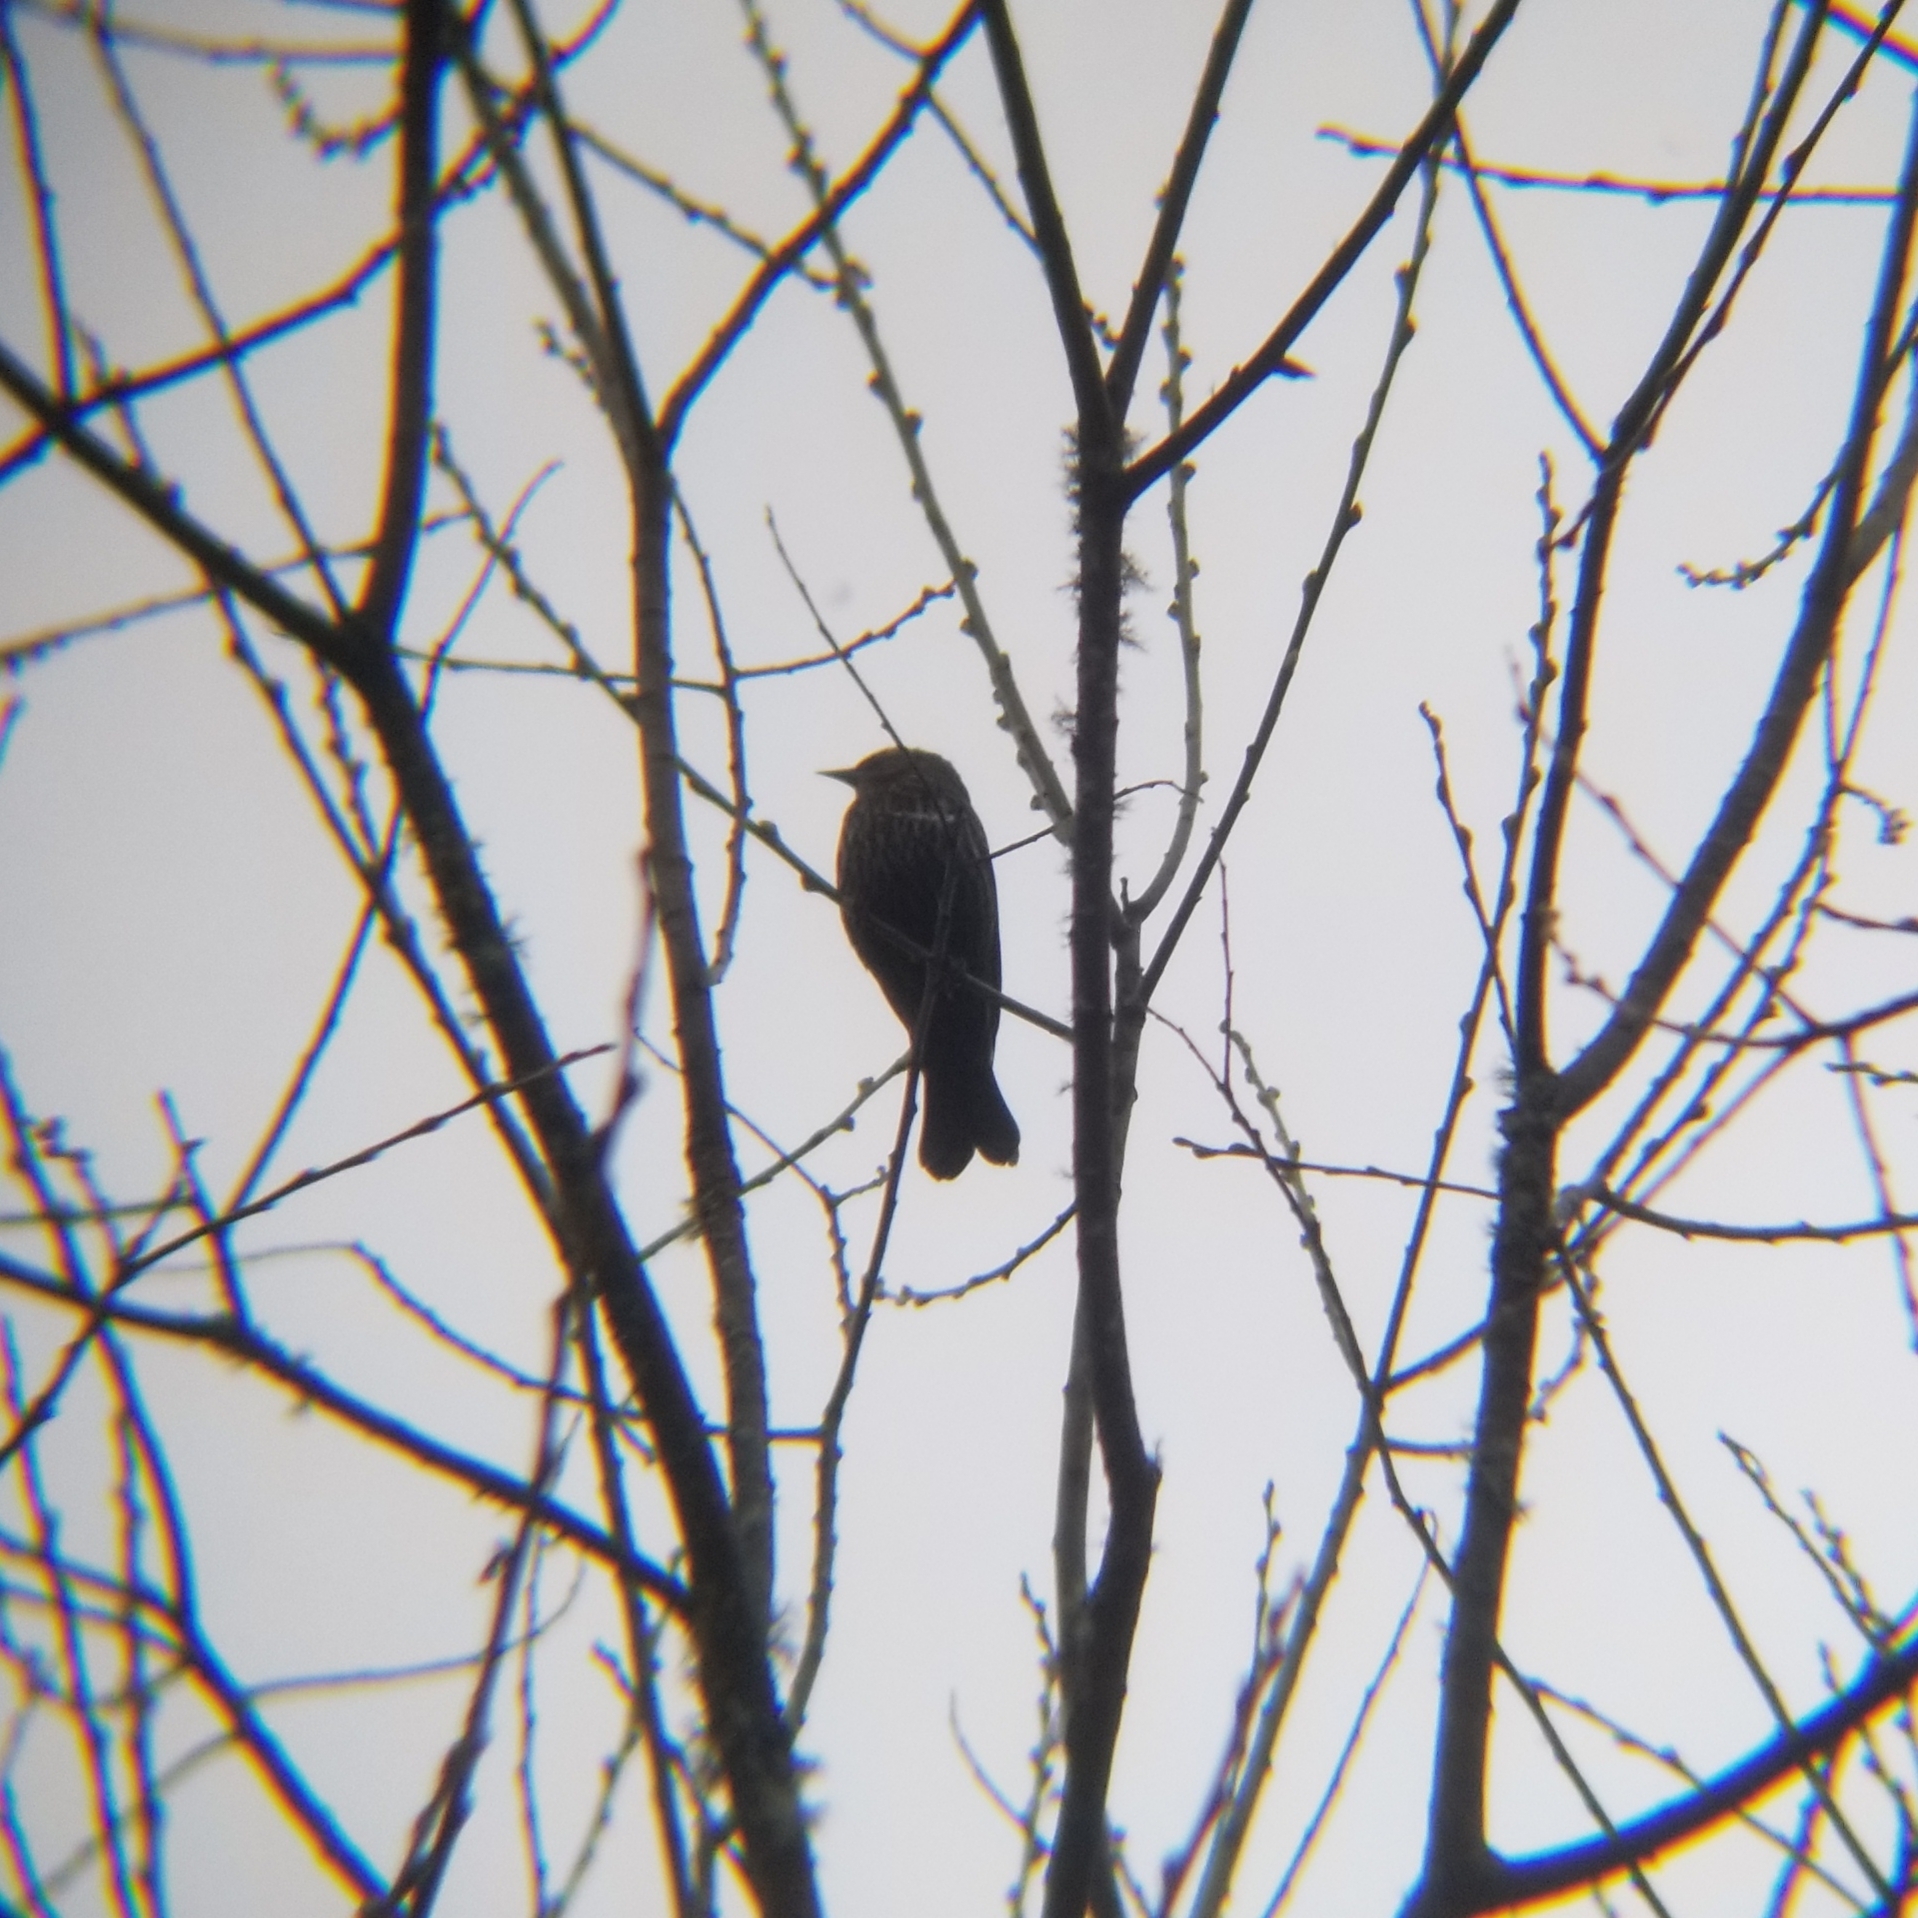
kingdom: Animalia
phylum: Chordata
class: Aves
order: Passeriformes
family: Icteridae
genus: Agelaius
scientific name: Agelaius phoeniceus
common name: Red-winged blackbird
